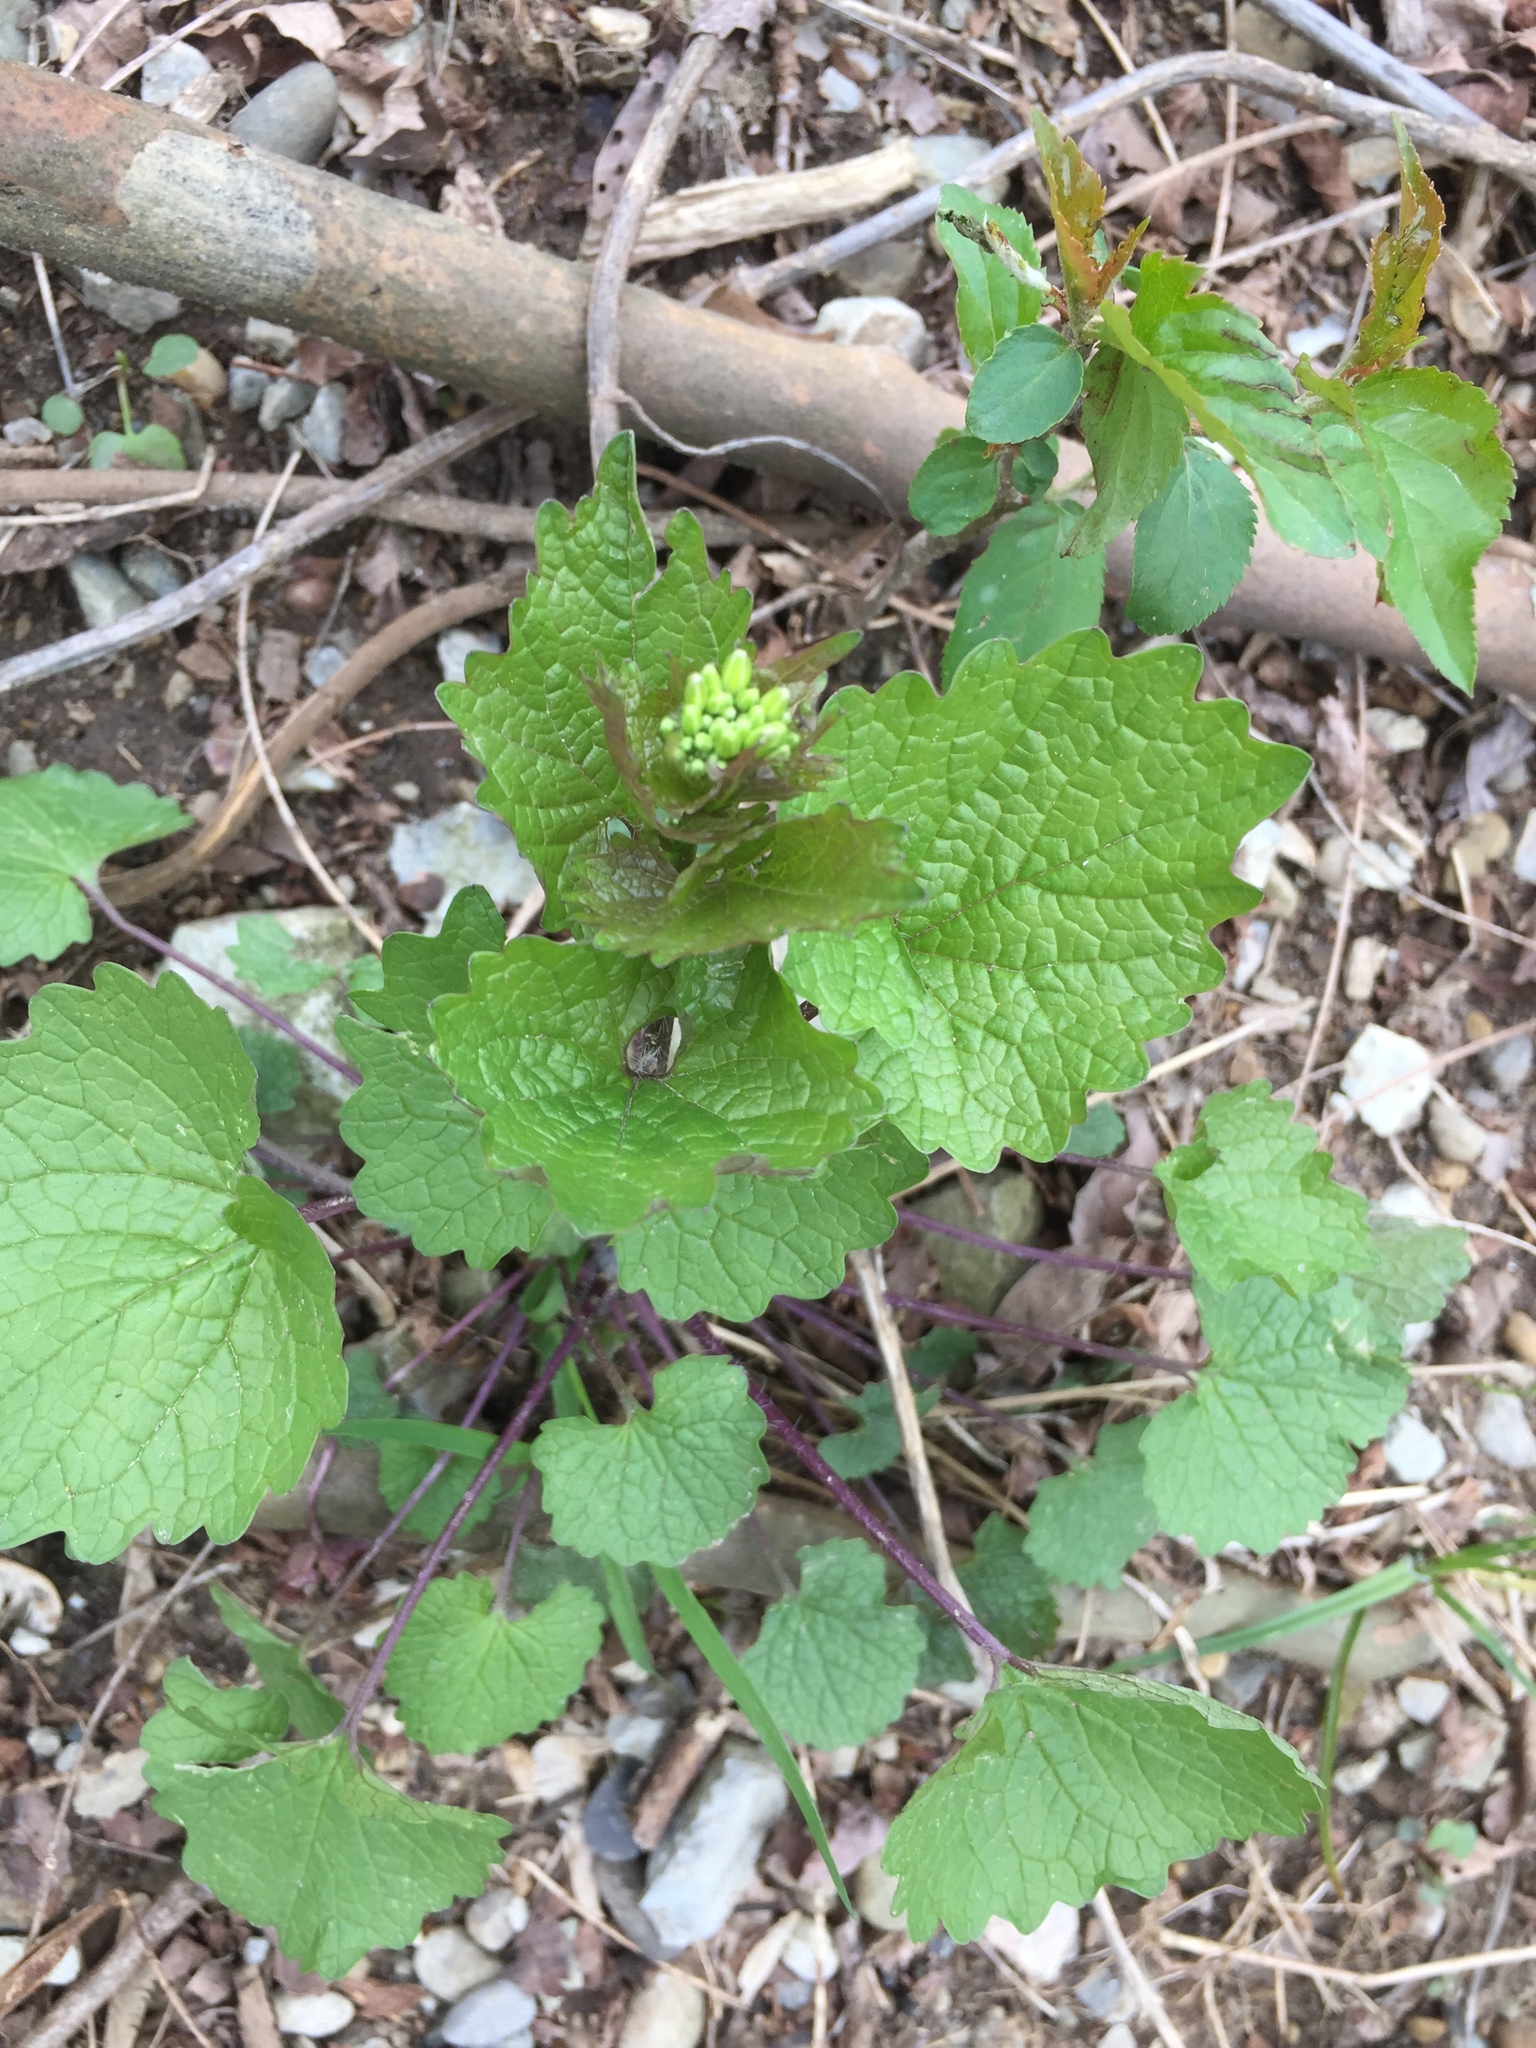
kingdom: Plantae
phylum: Tracheophyta
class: Magnoliopsida
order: Brassicales
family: Brassicaceae
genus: Alliaria
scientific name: Alliaria petiolata
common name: Garlic mustard
